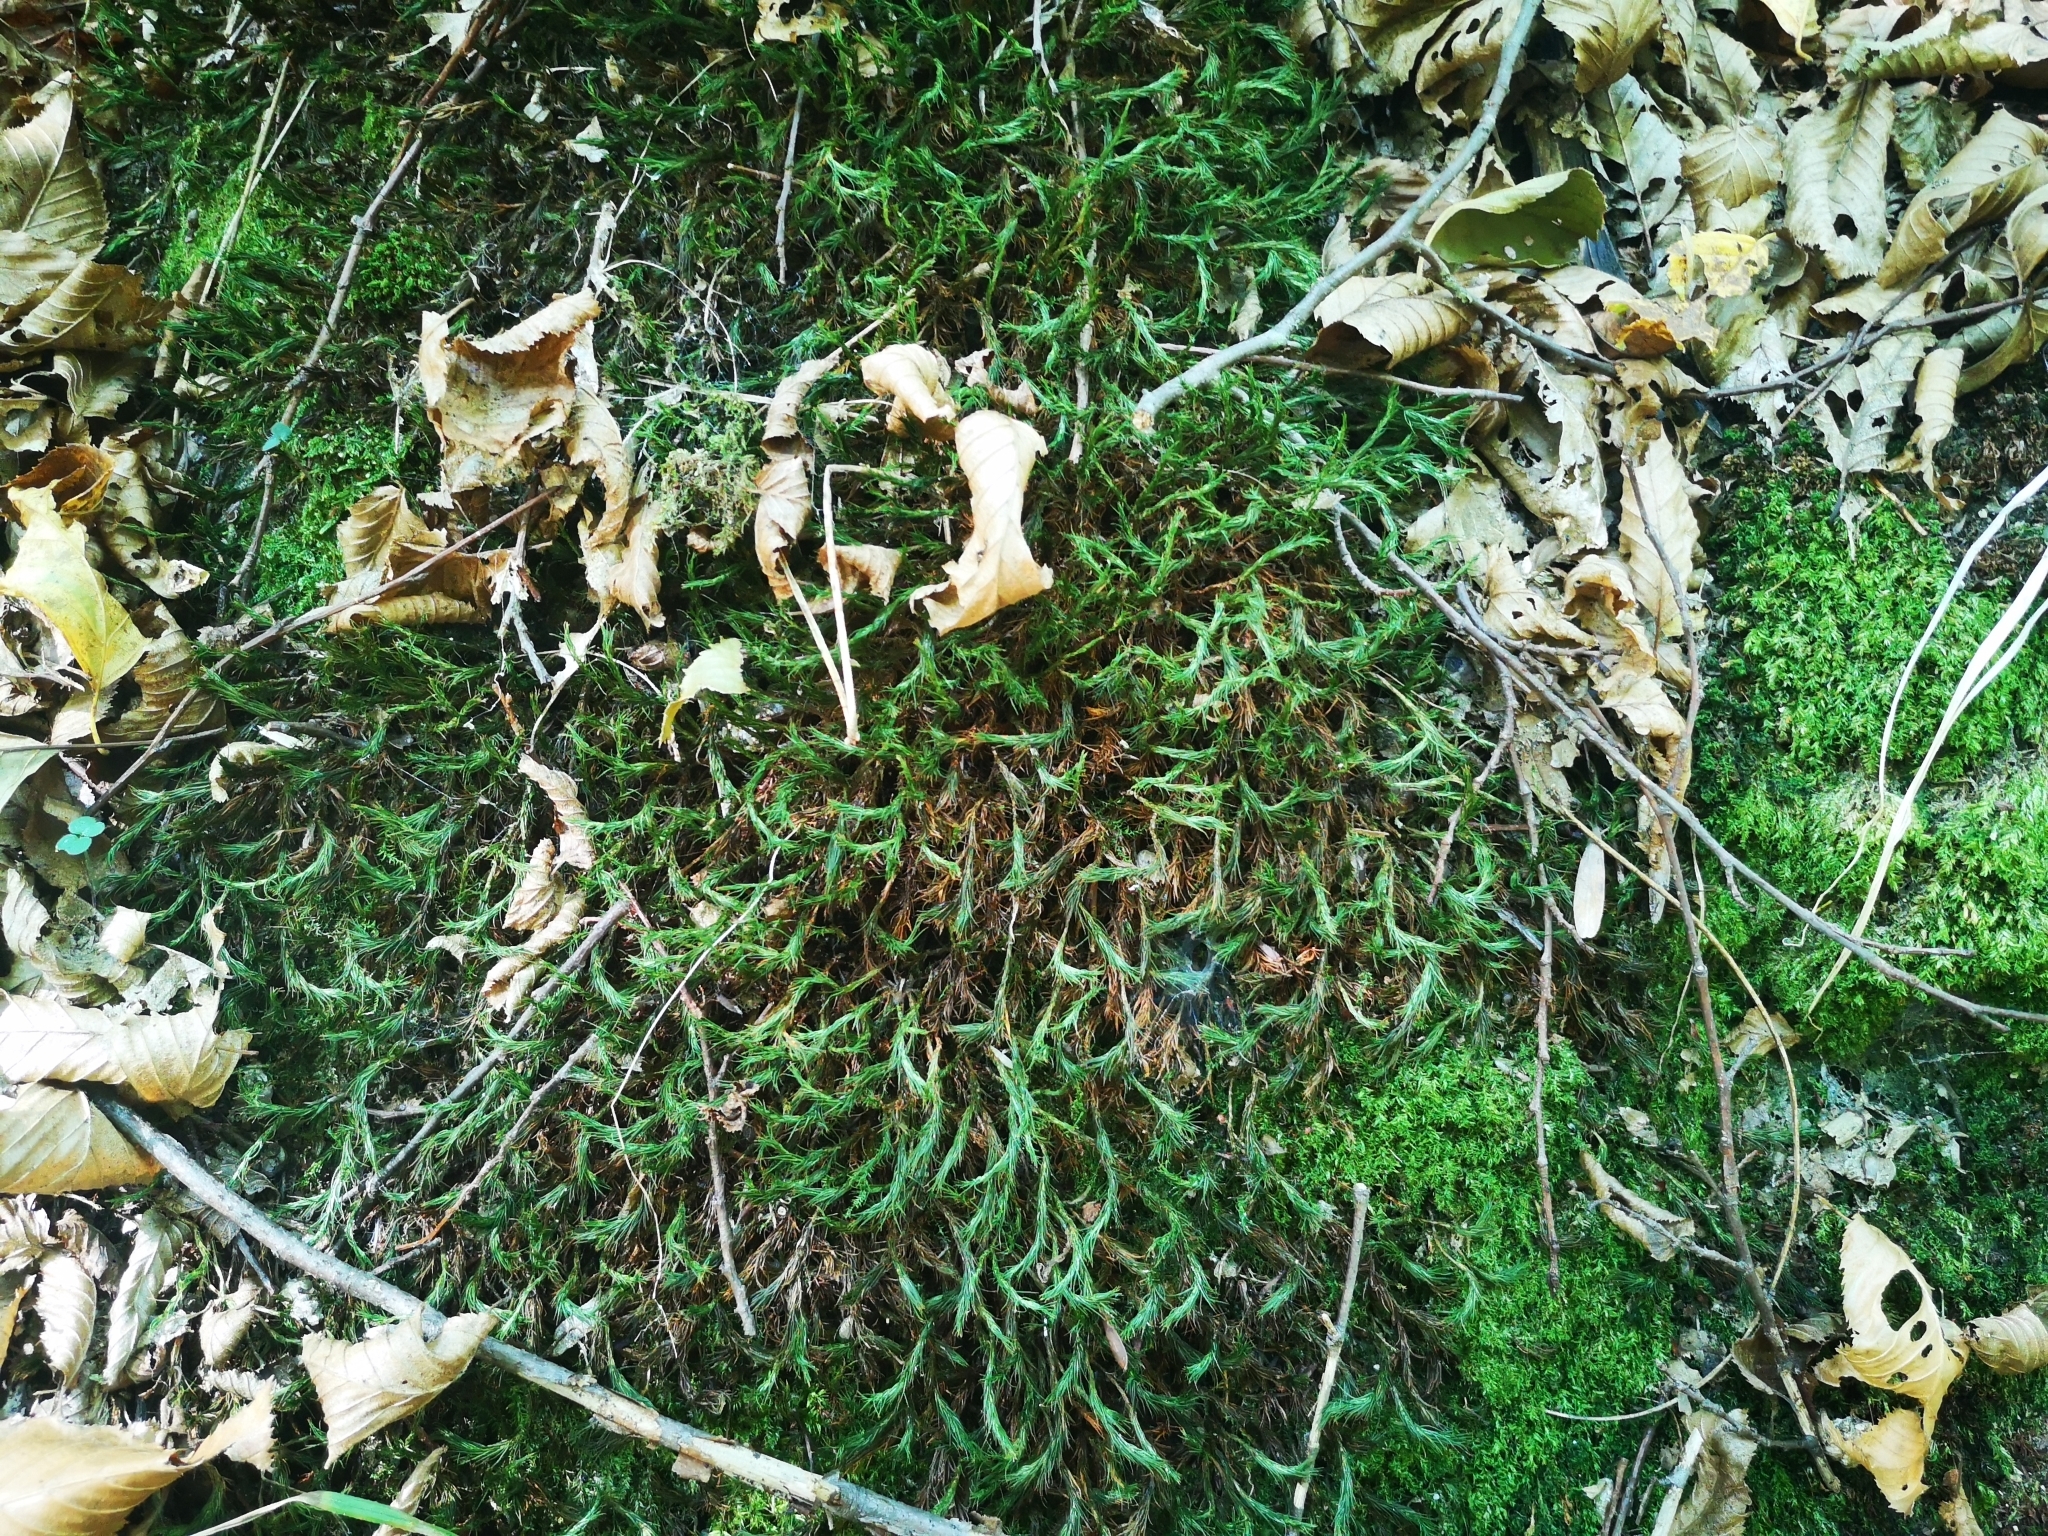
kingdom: Plantae
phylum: Bryophyta
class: Polytrichopsida
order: Polytrichales
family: Polytrichaceae
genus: Polytrichum
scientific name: Polytrichum formosum
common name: Bank haircap moss
